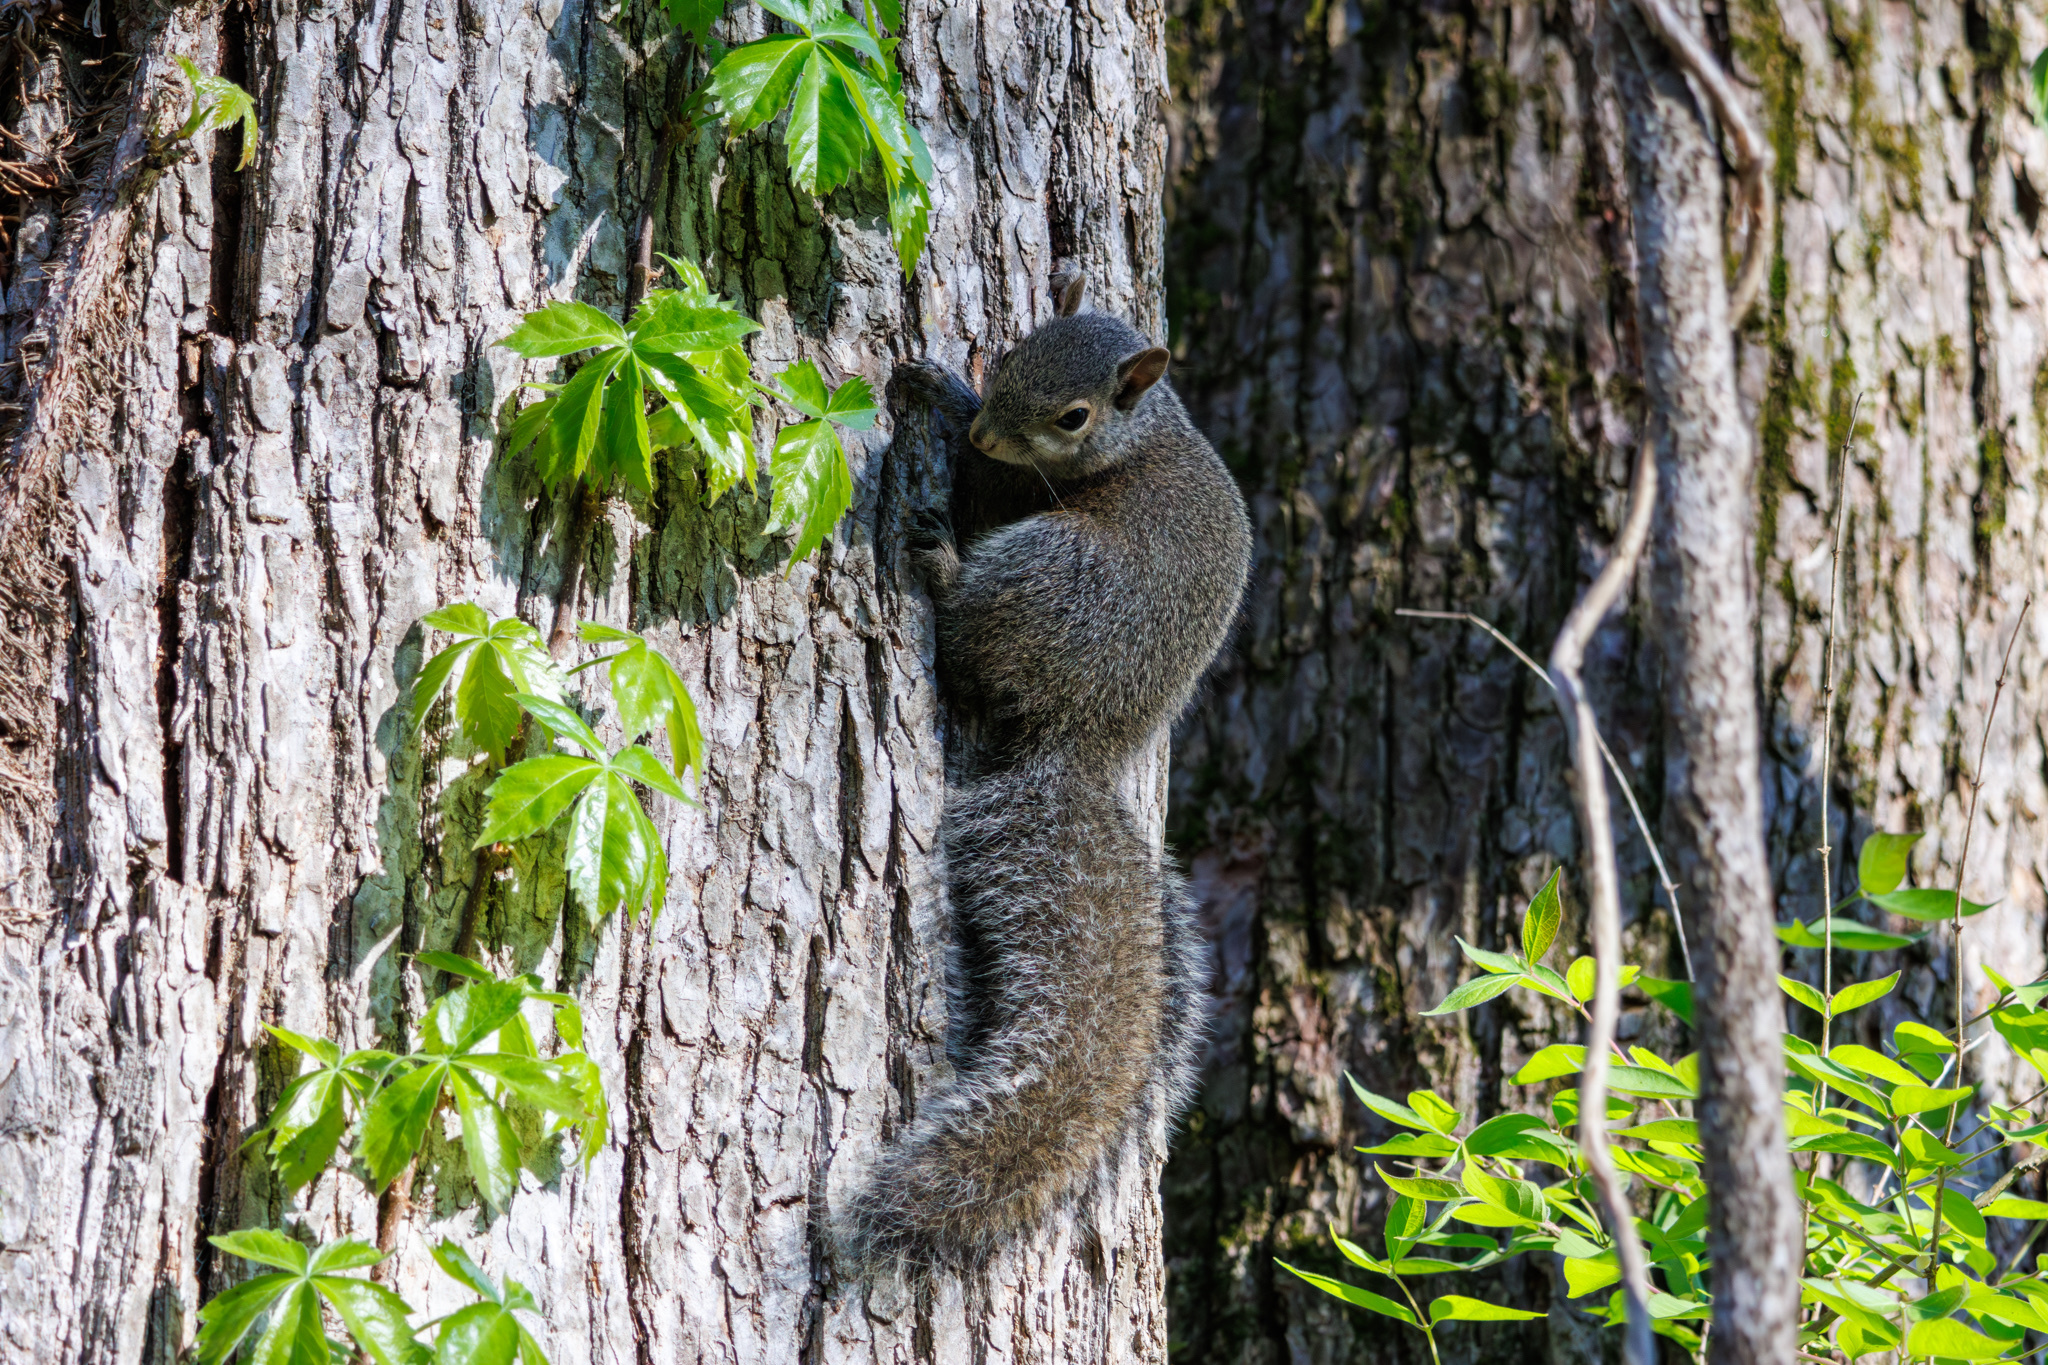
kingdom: Animalia
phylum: Chordata
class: Mammalia
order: Rodentia
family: Sciuridae
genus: Sciurus
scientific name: Sciurus carolinensis
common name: Eastern gray squirrel
